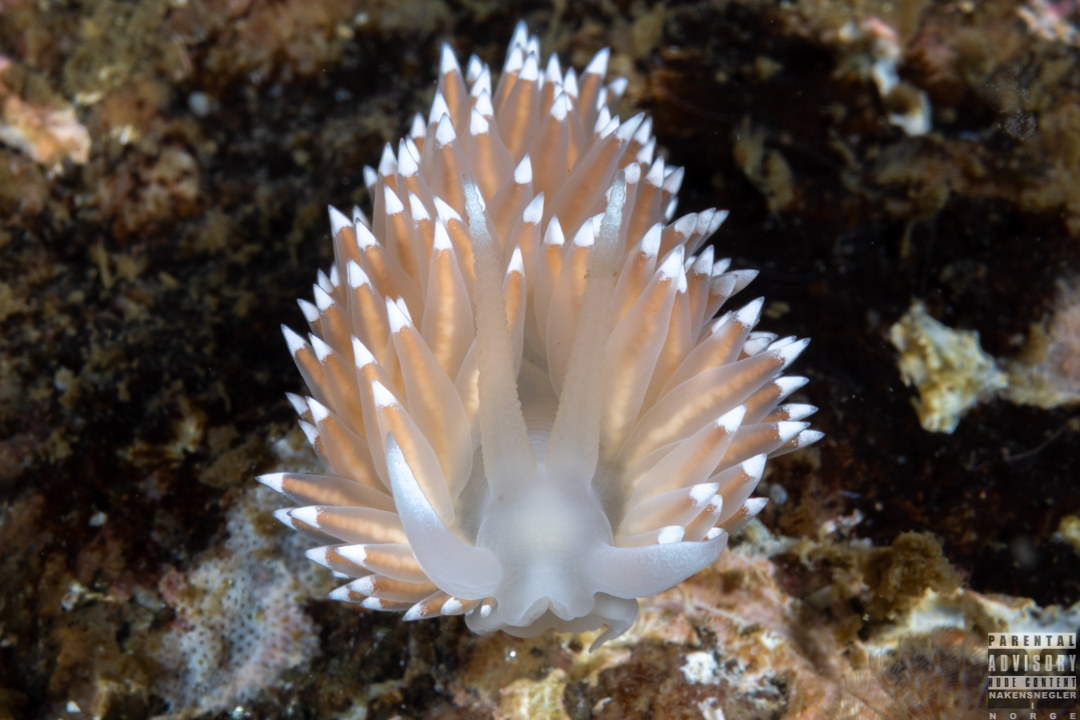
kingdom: Animalia
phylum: Mollusca
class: Gastropoda
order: Nudibranchia
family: Coryphellidae
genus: Coryphella
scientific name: Coryphella nobilis
